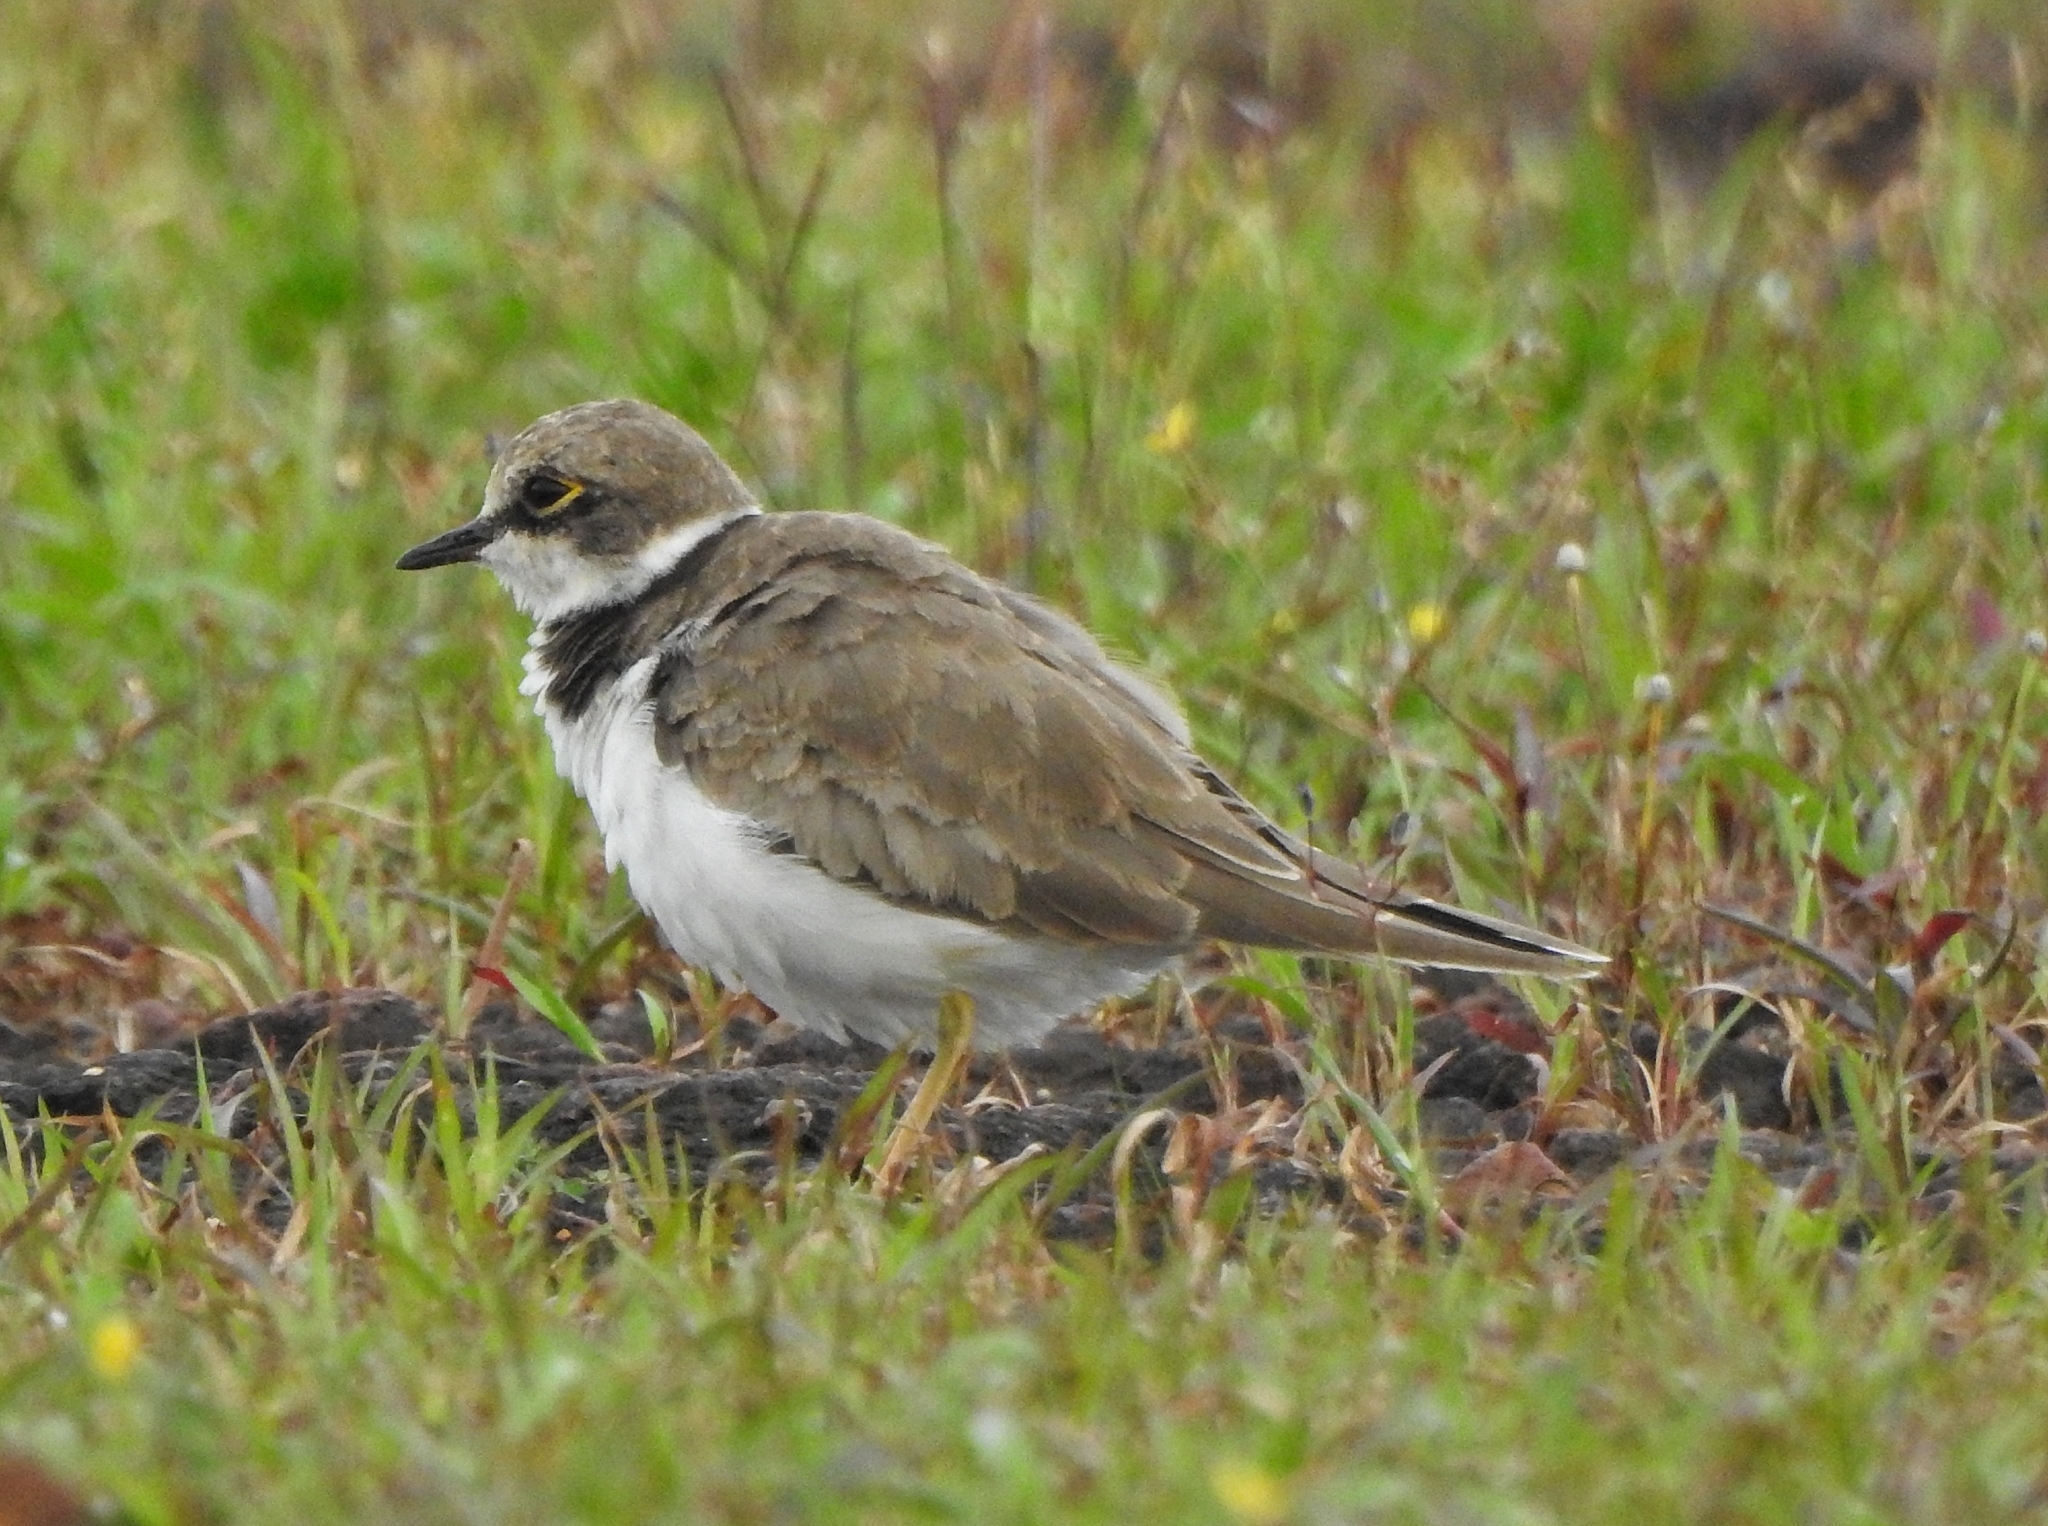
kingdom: Animalia
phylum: Chordata
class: Aves
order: Charadriiformes
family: Charadriidae
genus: Charadrius
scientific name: Charadrius dubius
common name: Little ringed plover
